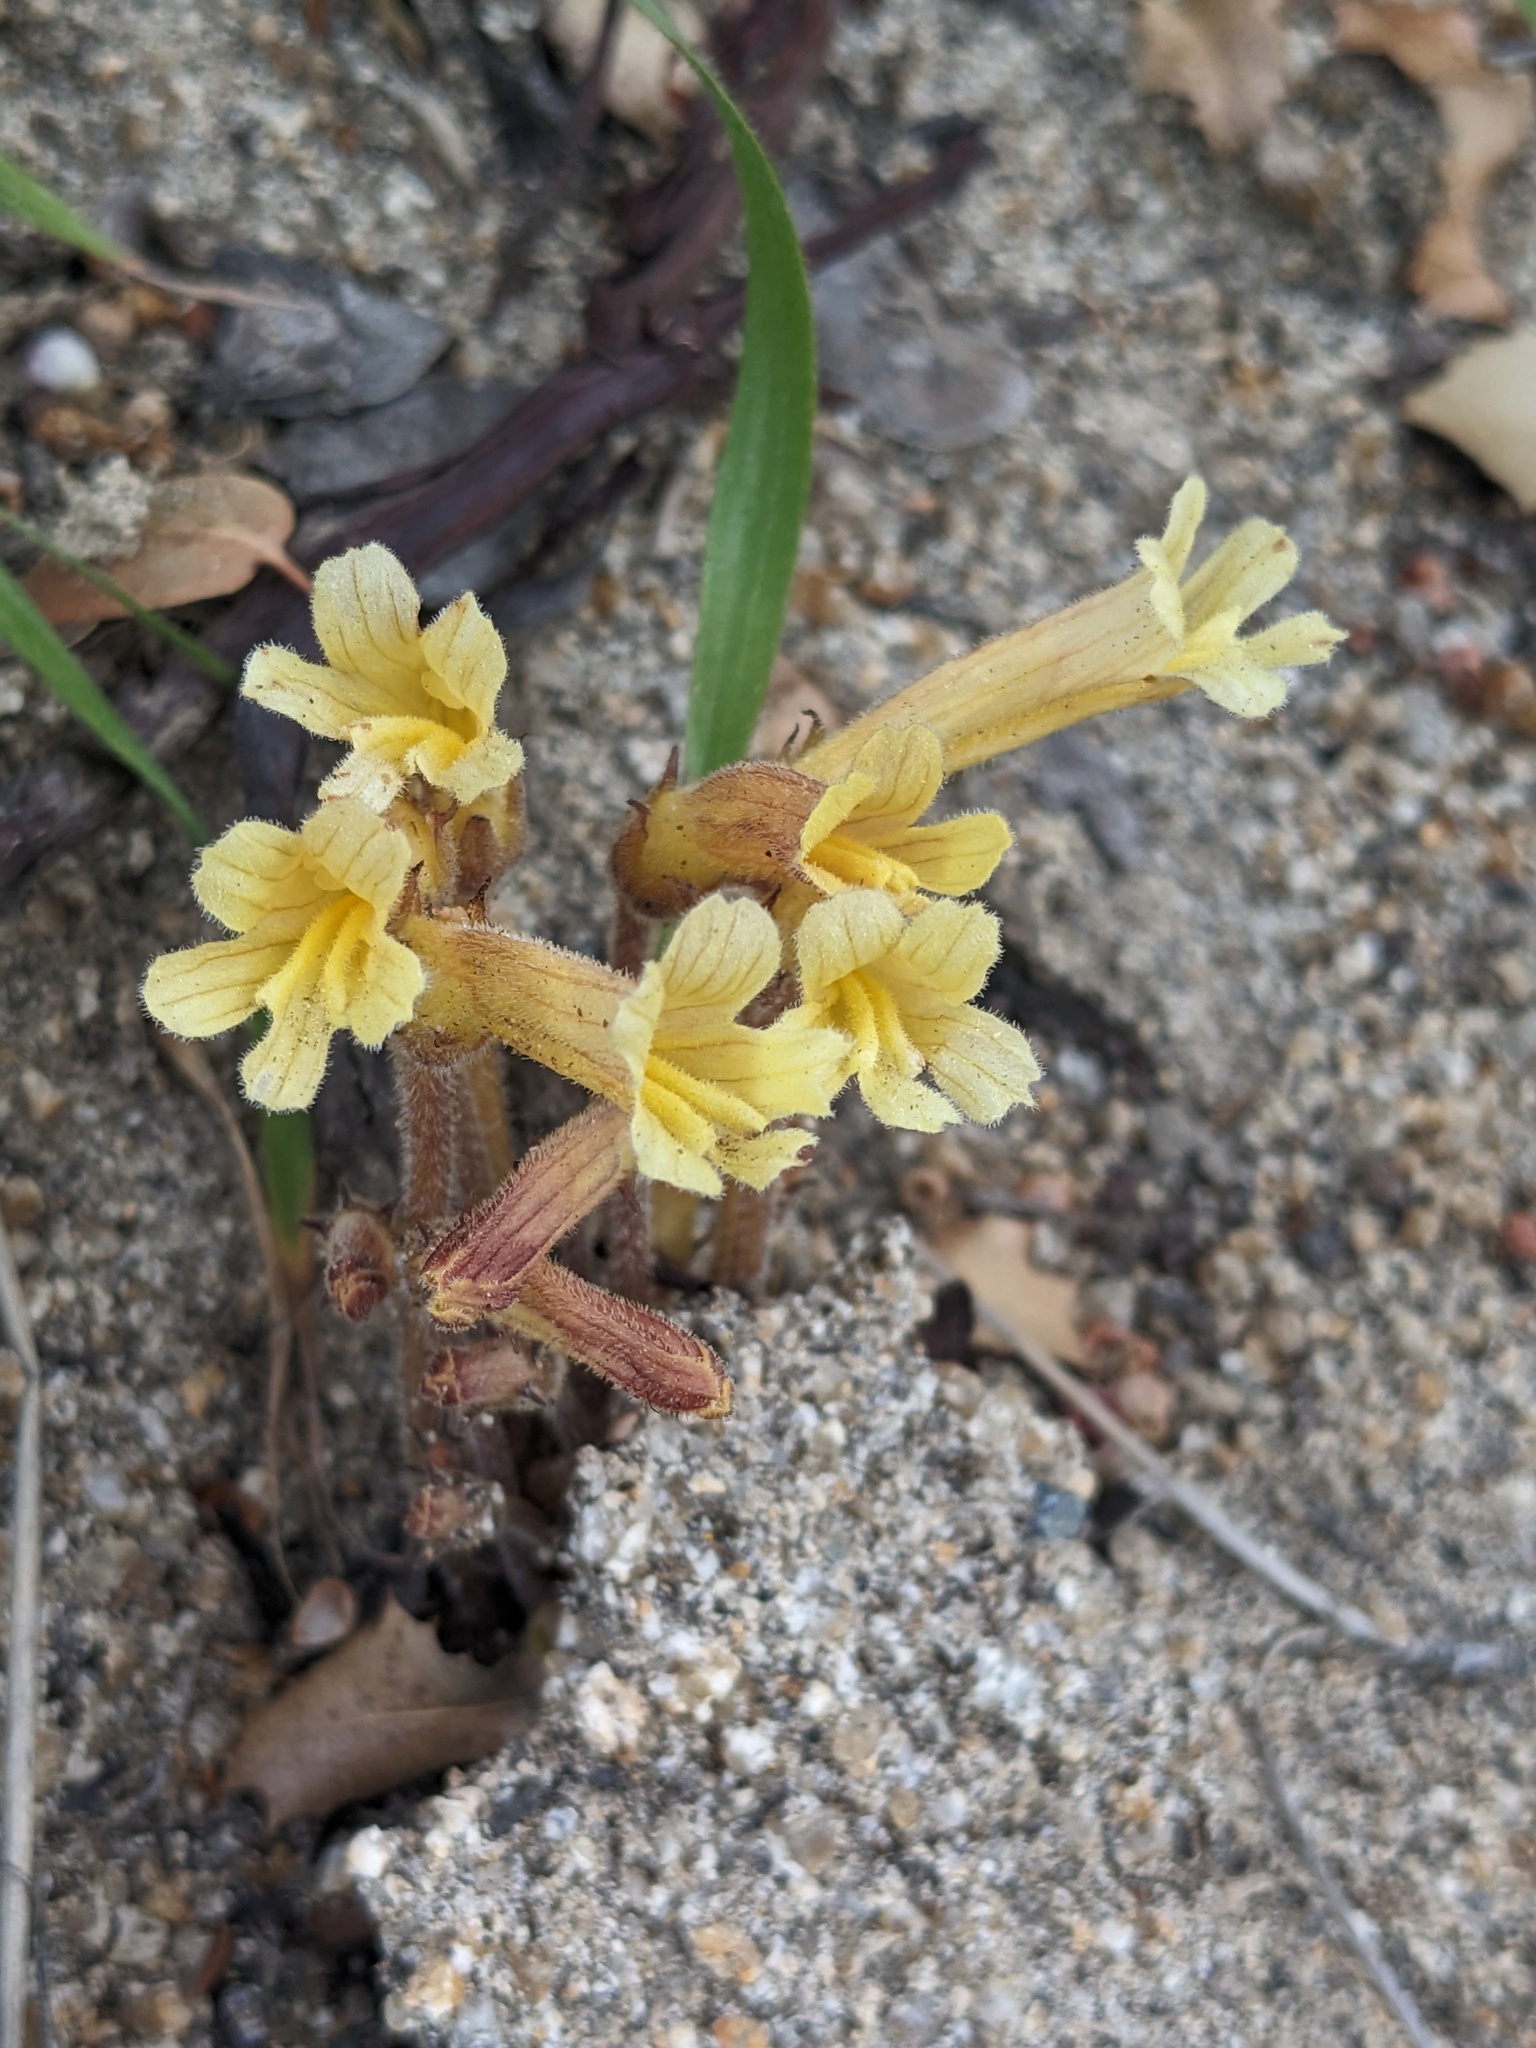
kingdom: Plantae
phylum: Tracheophyta
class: Magnoliopsida
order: Lamiales
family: Orobanchaceae
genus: Aphyllon
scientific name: Aphyllon franciscanum
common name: San francisco broomrape
